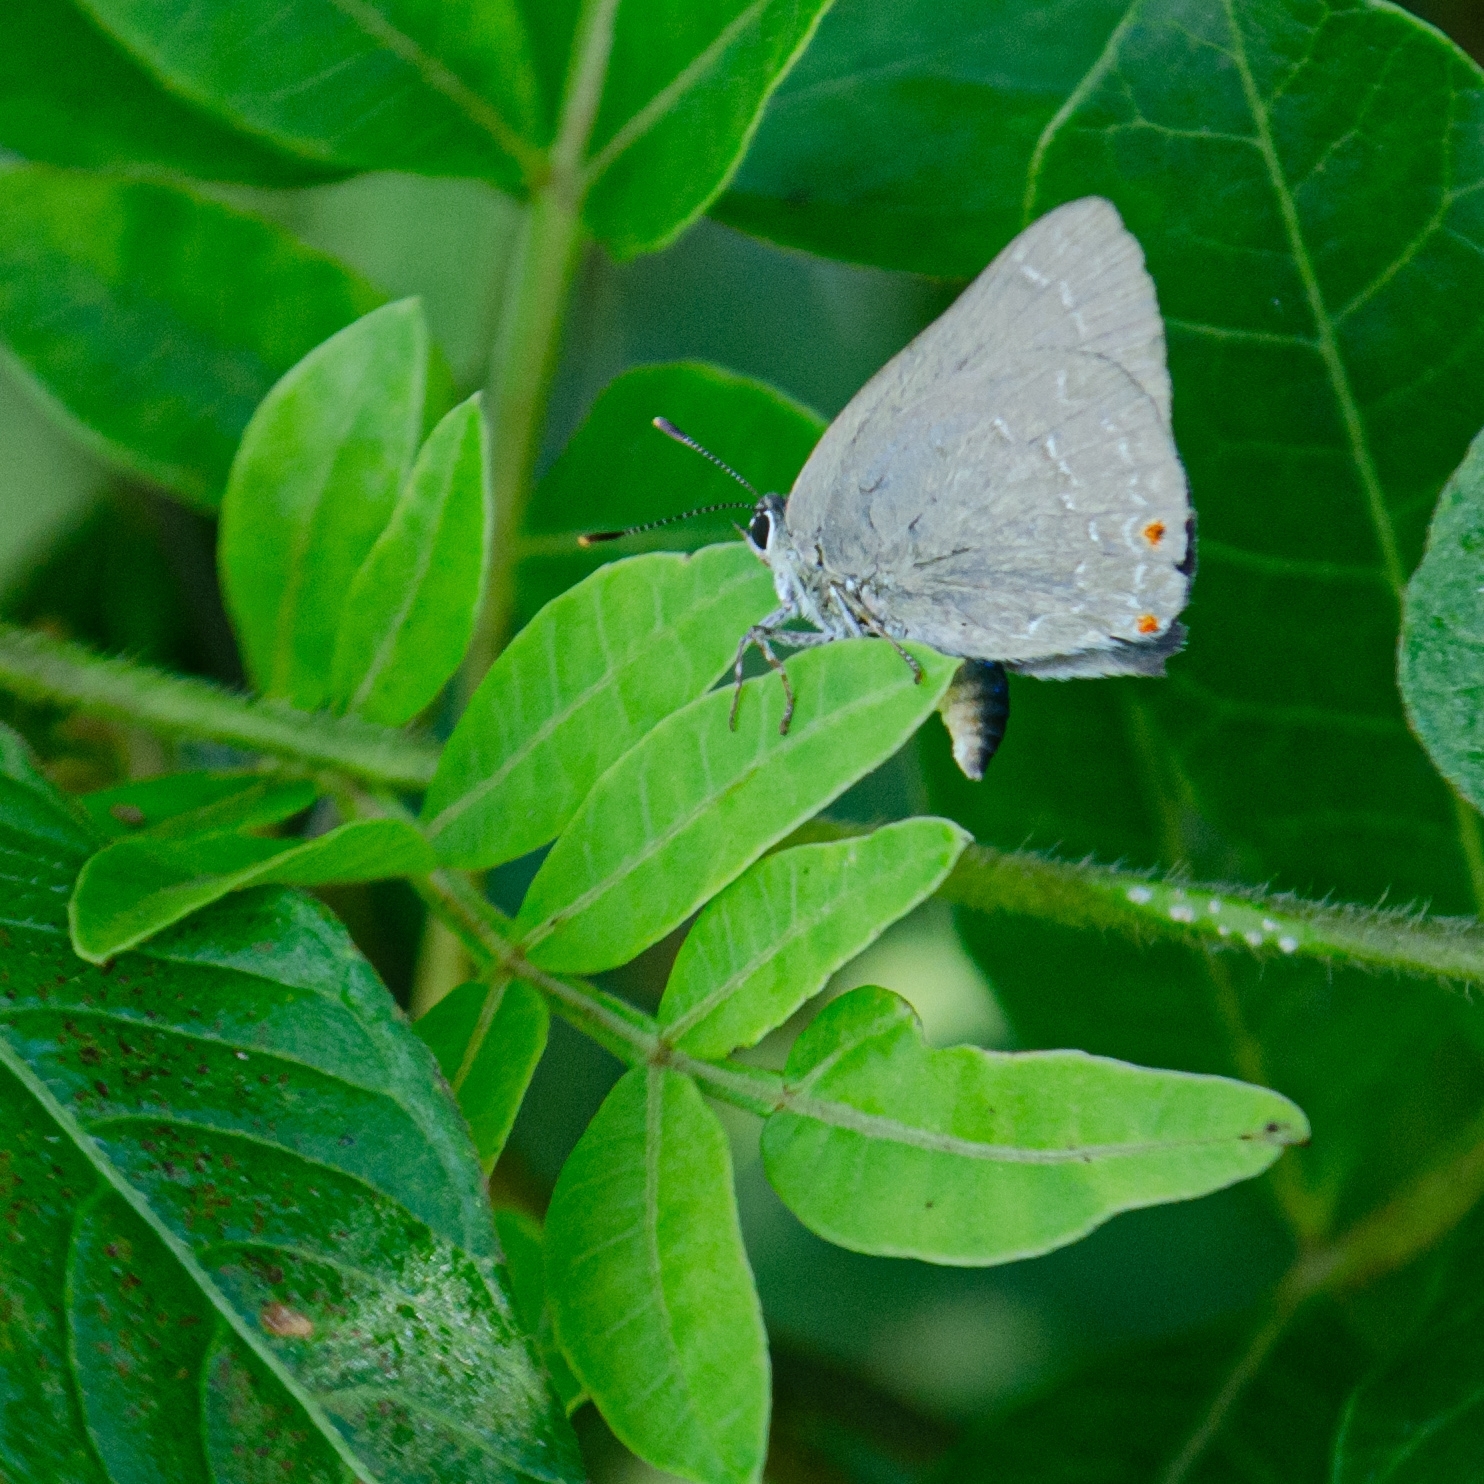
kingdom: Animalia
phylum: Arthropoda
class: Insecta
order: Lepidoptera
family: Lycaenidae
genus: Ignata
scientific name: Ignata brasiliensis
